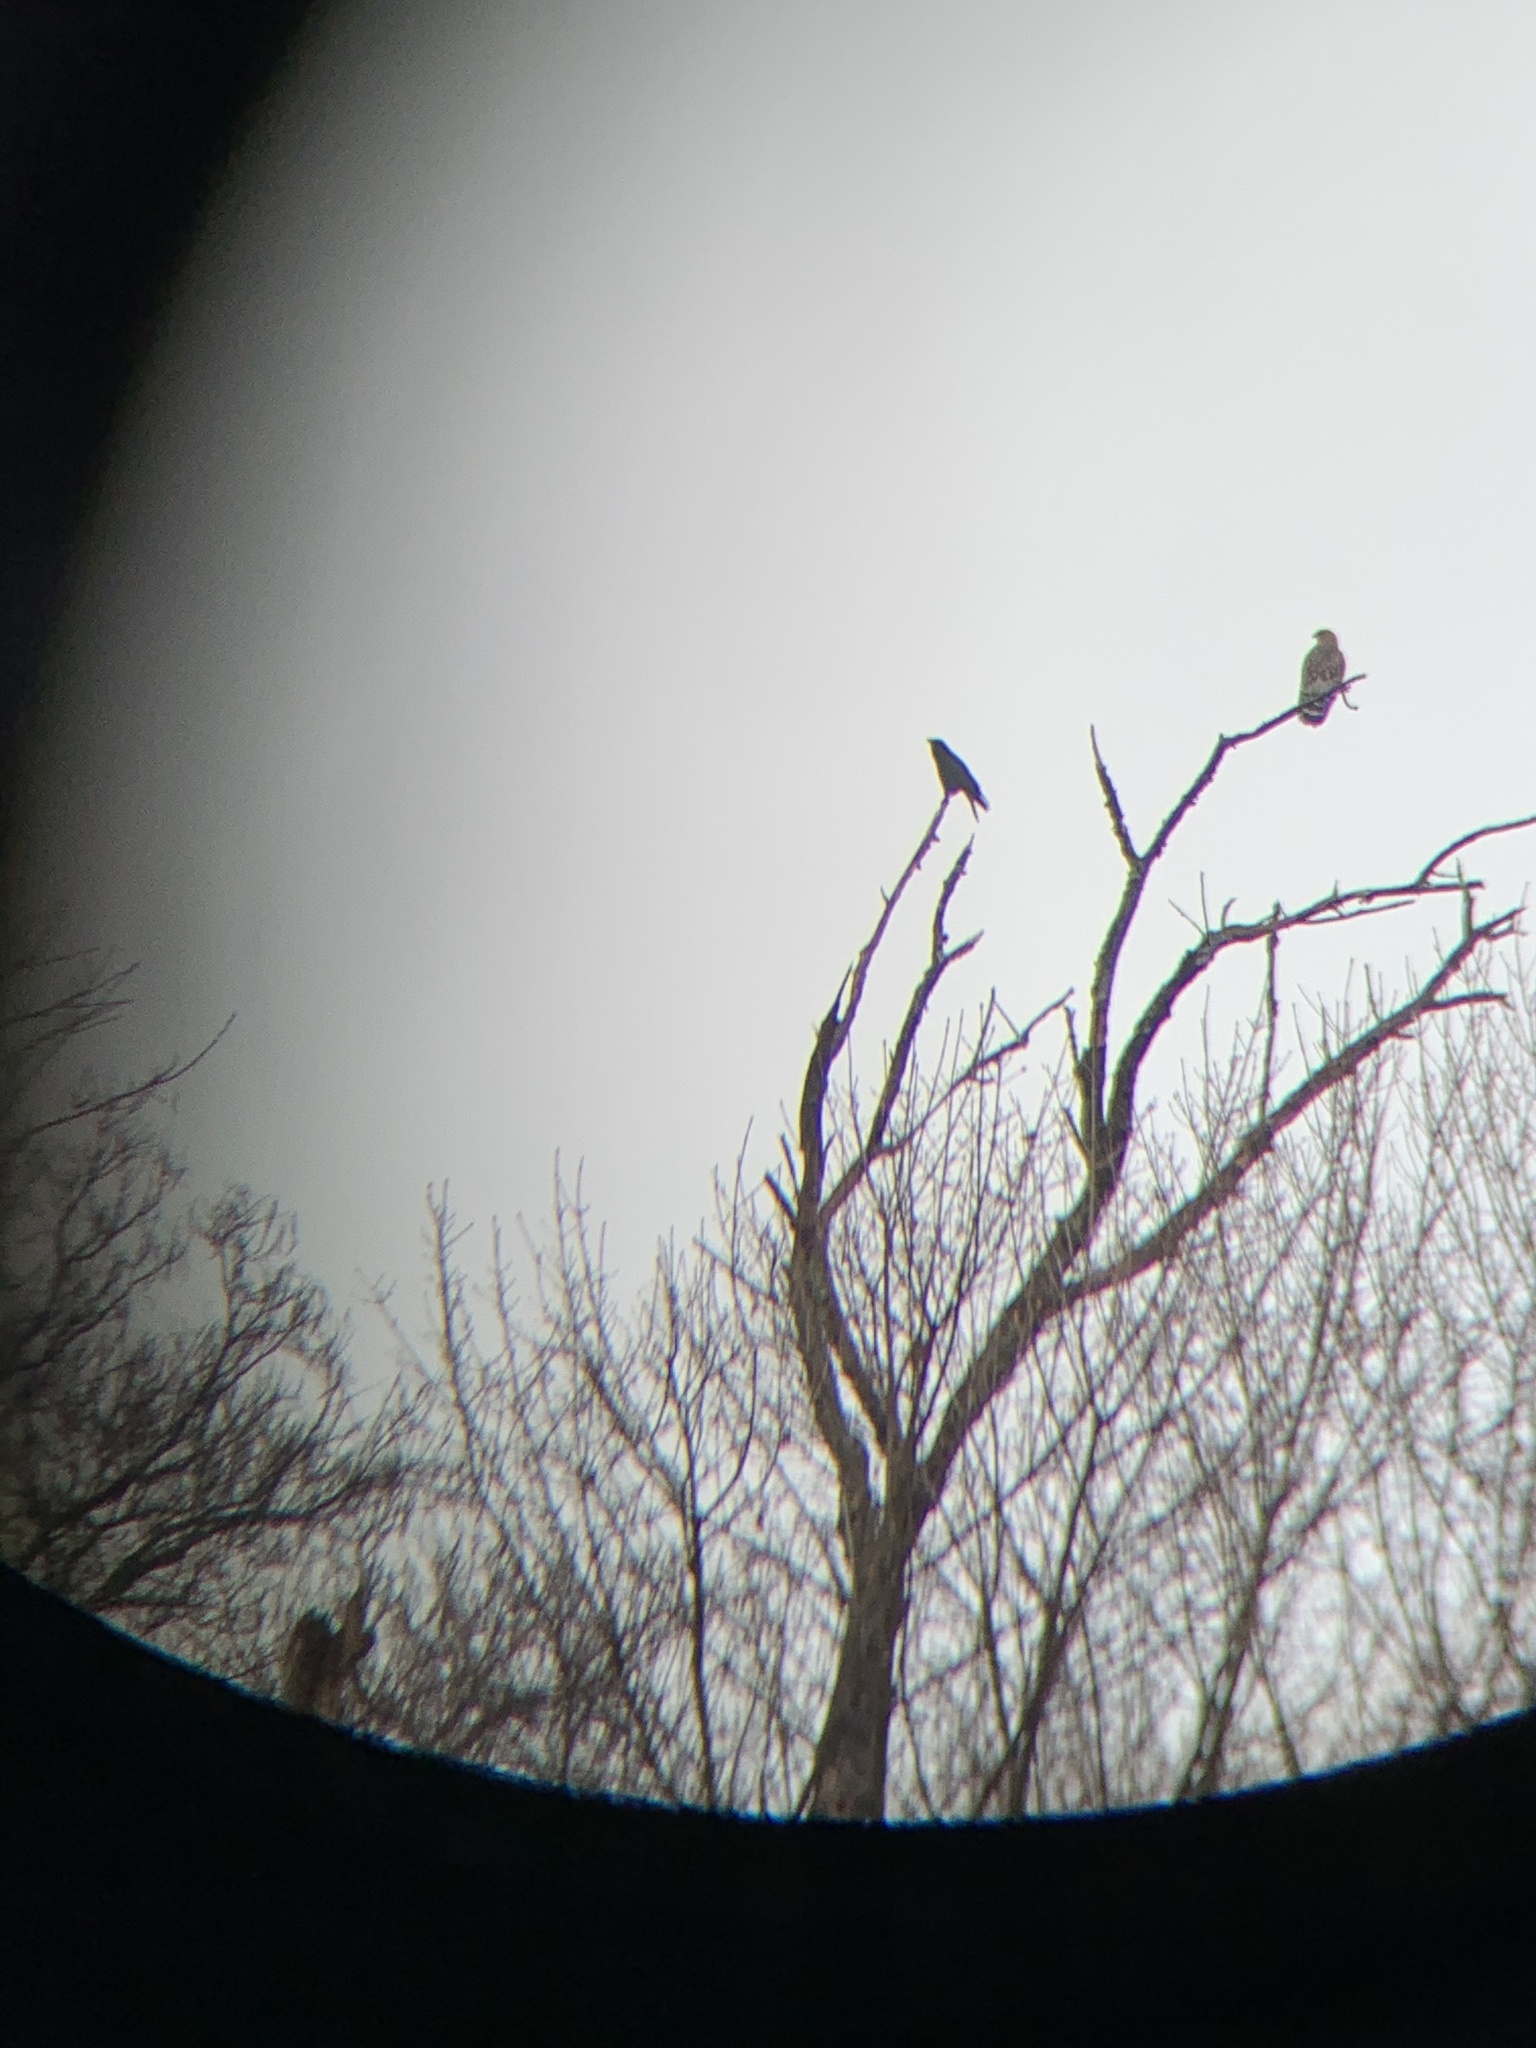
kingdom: Animalia
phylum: Chordata
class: Aves
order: Accipitriformes
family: Accipitridae
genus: Buteo
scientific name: Buteo lineatus
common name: Red-shouldered hawk
